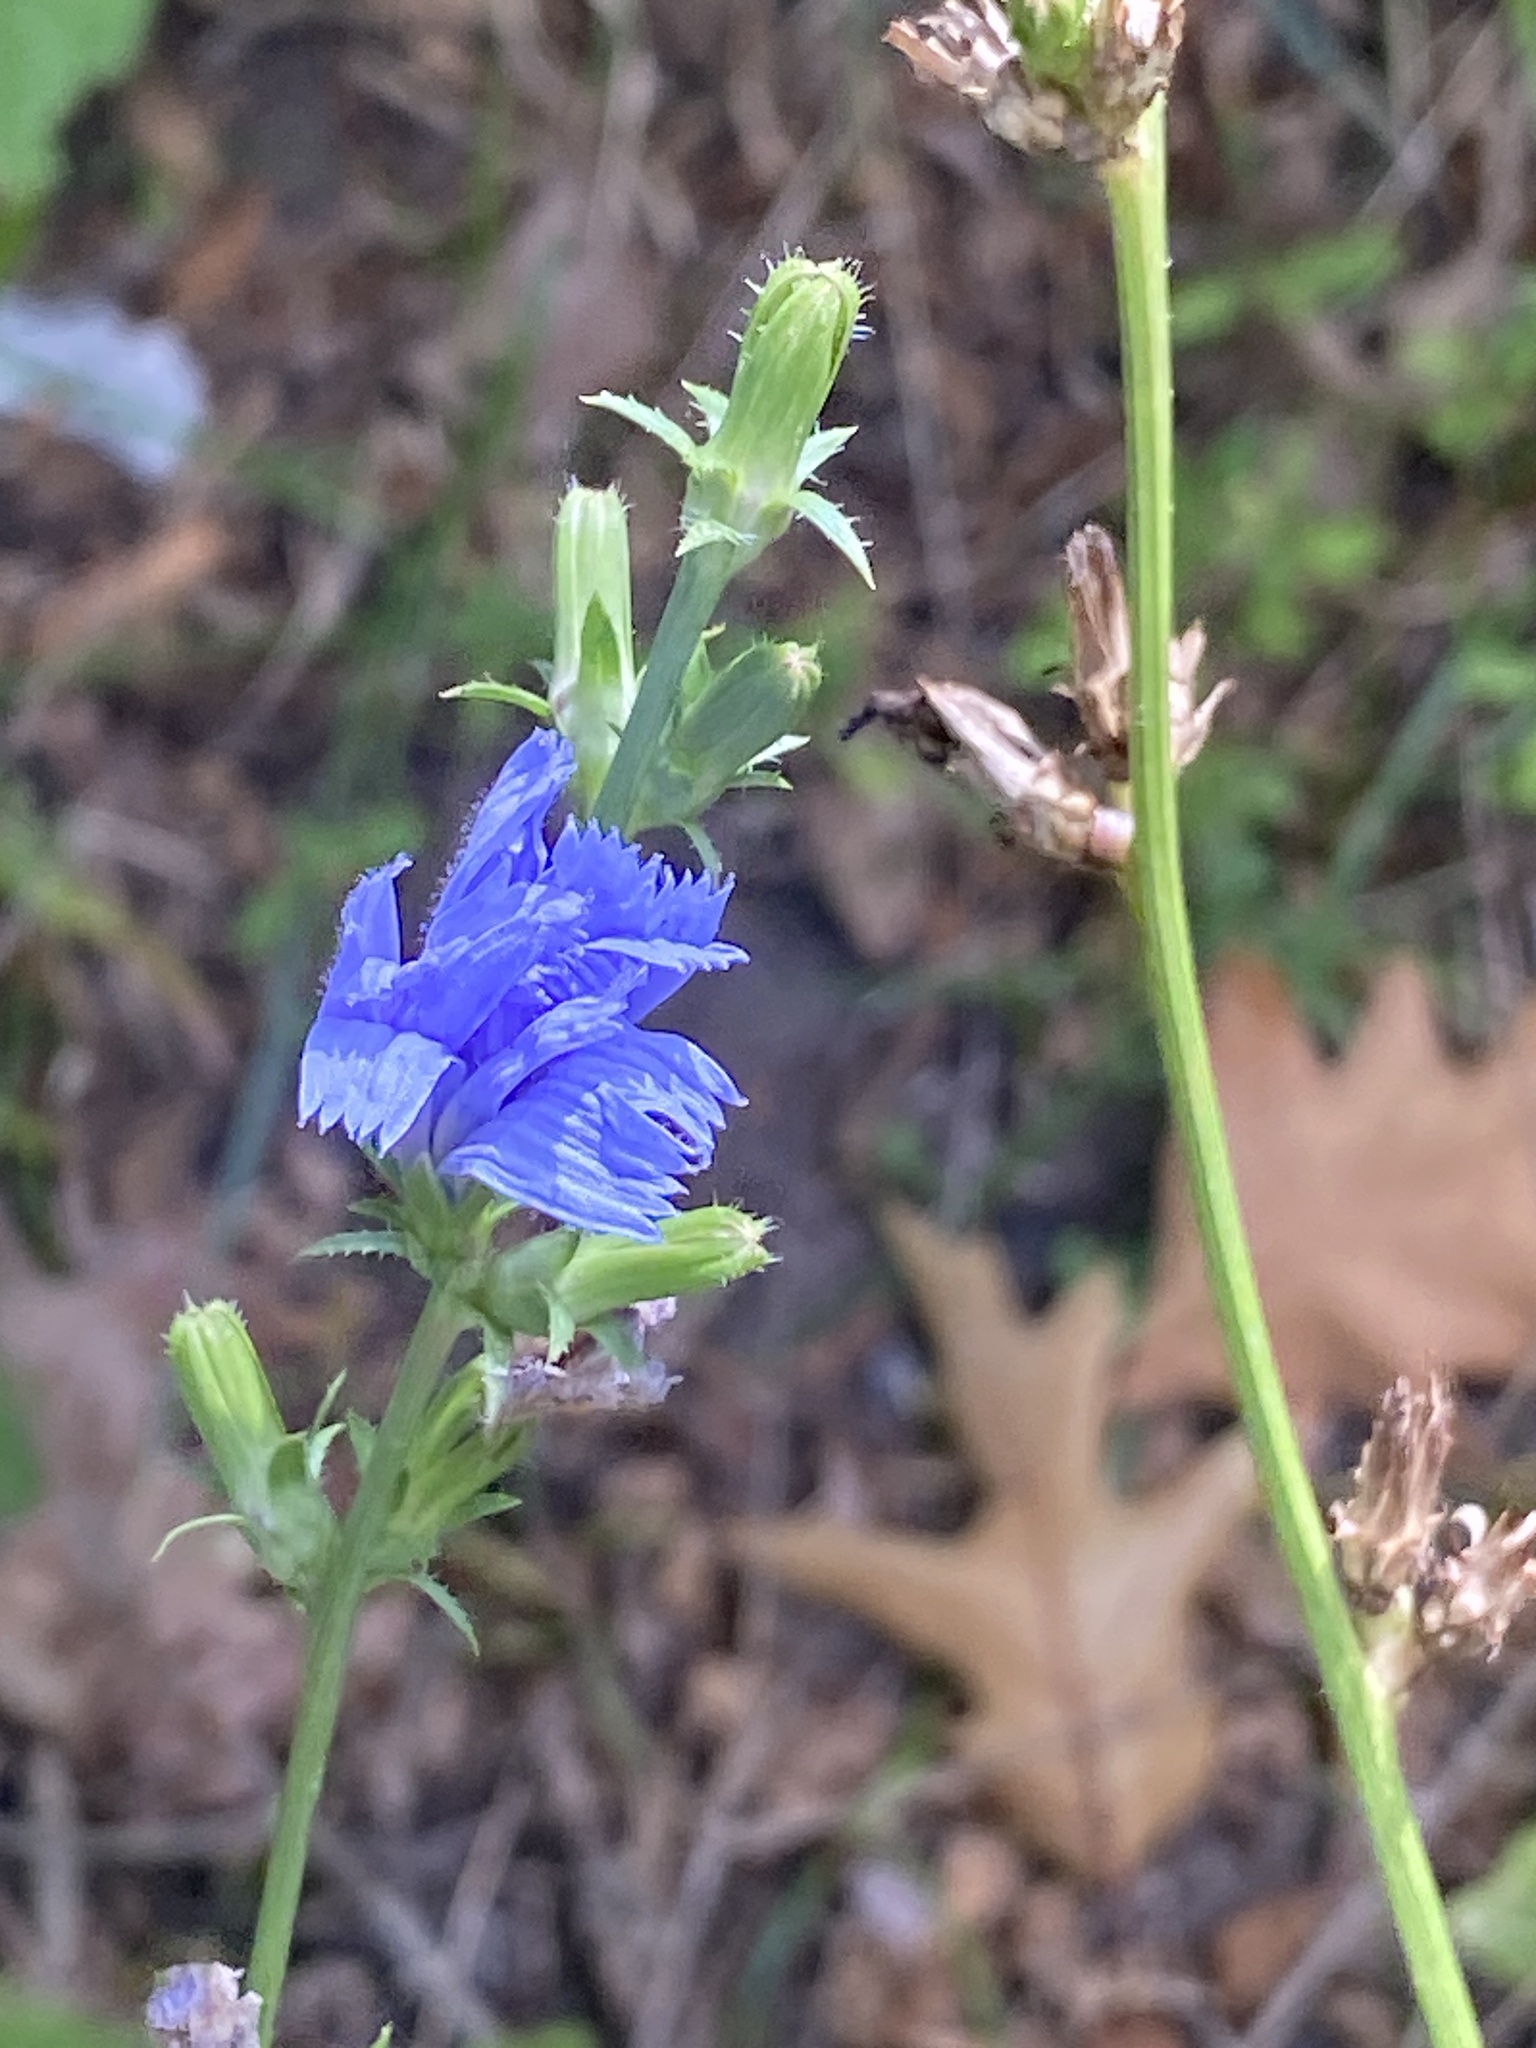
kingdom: Plantae
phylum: Tracheophyta
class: Magnoliopsida
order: Asterales
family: Asteraceae
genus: Cichorium
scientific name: Cichorium intybus
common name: Chicory
